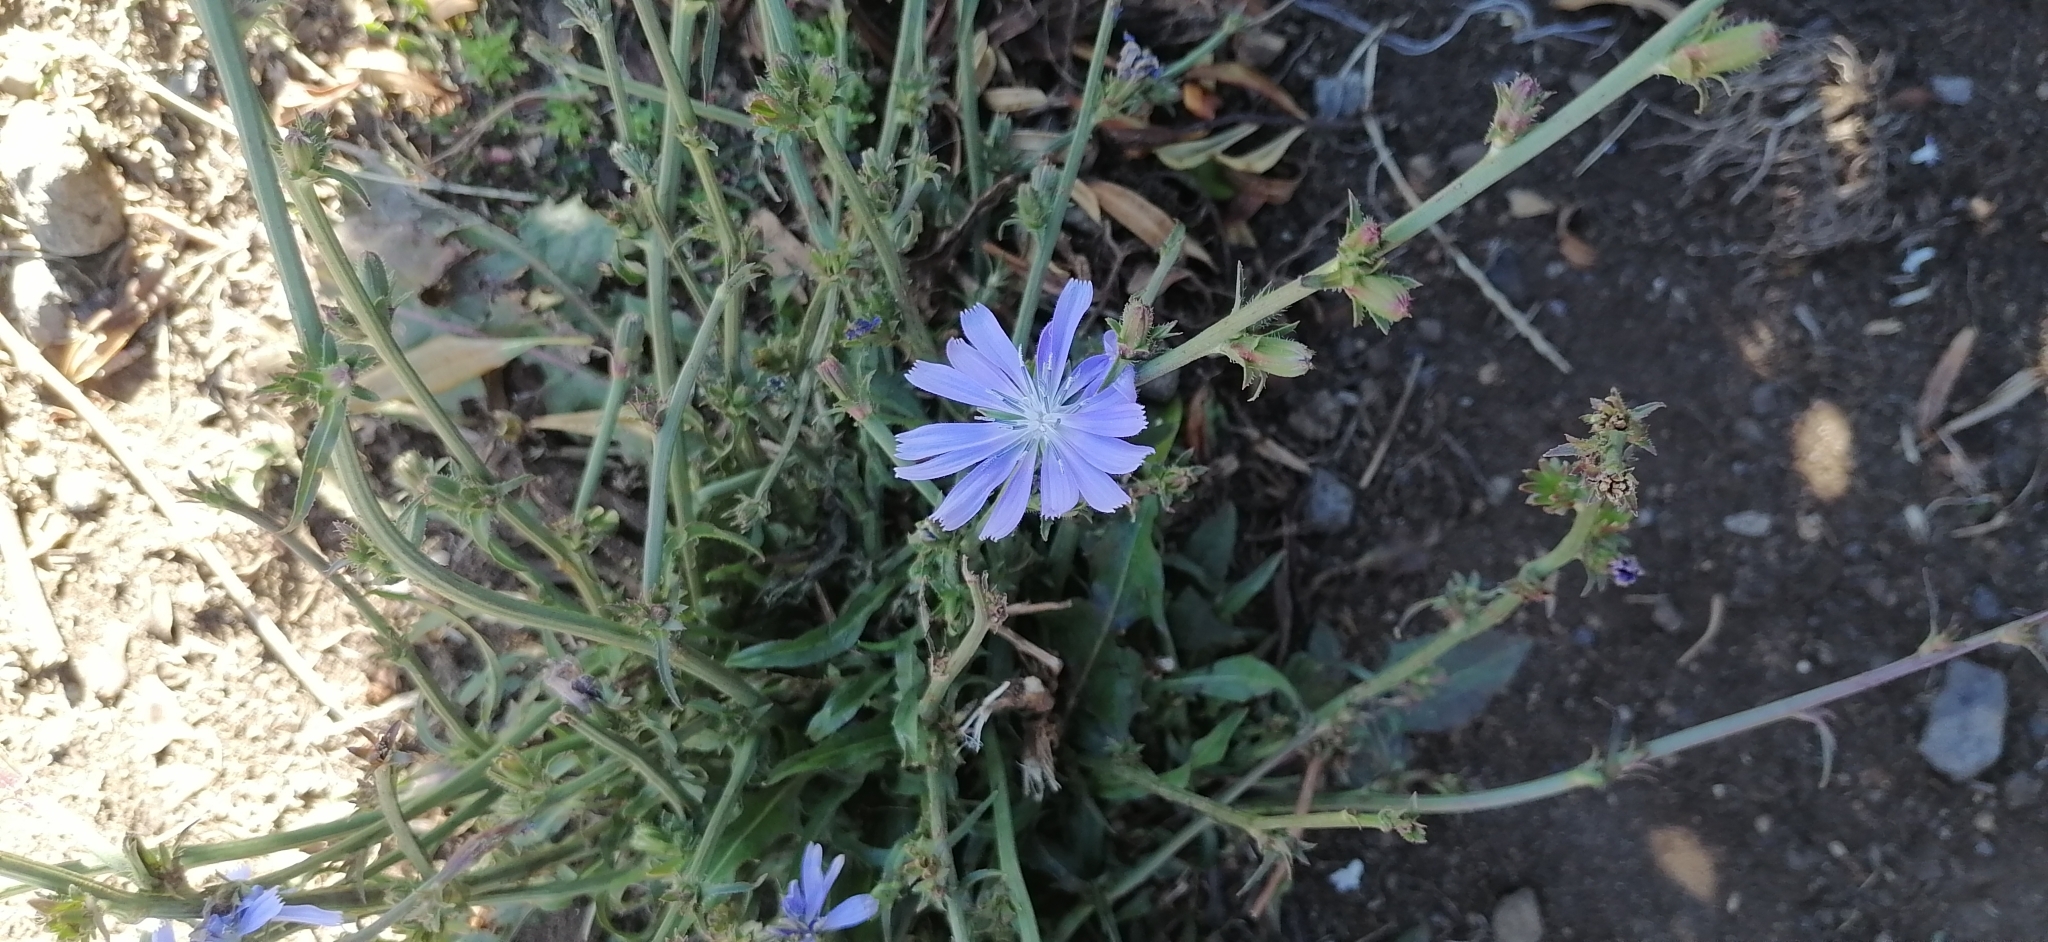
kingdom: Plantae
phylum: Tracheophyta
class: Magnoliopsida
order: Asterales
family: Asteraceae
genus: Cichorium
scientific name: Cichorium intybus
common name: Chicory
